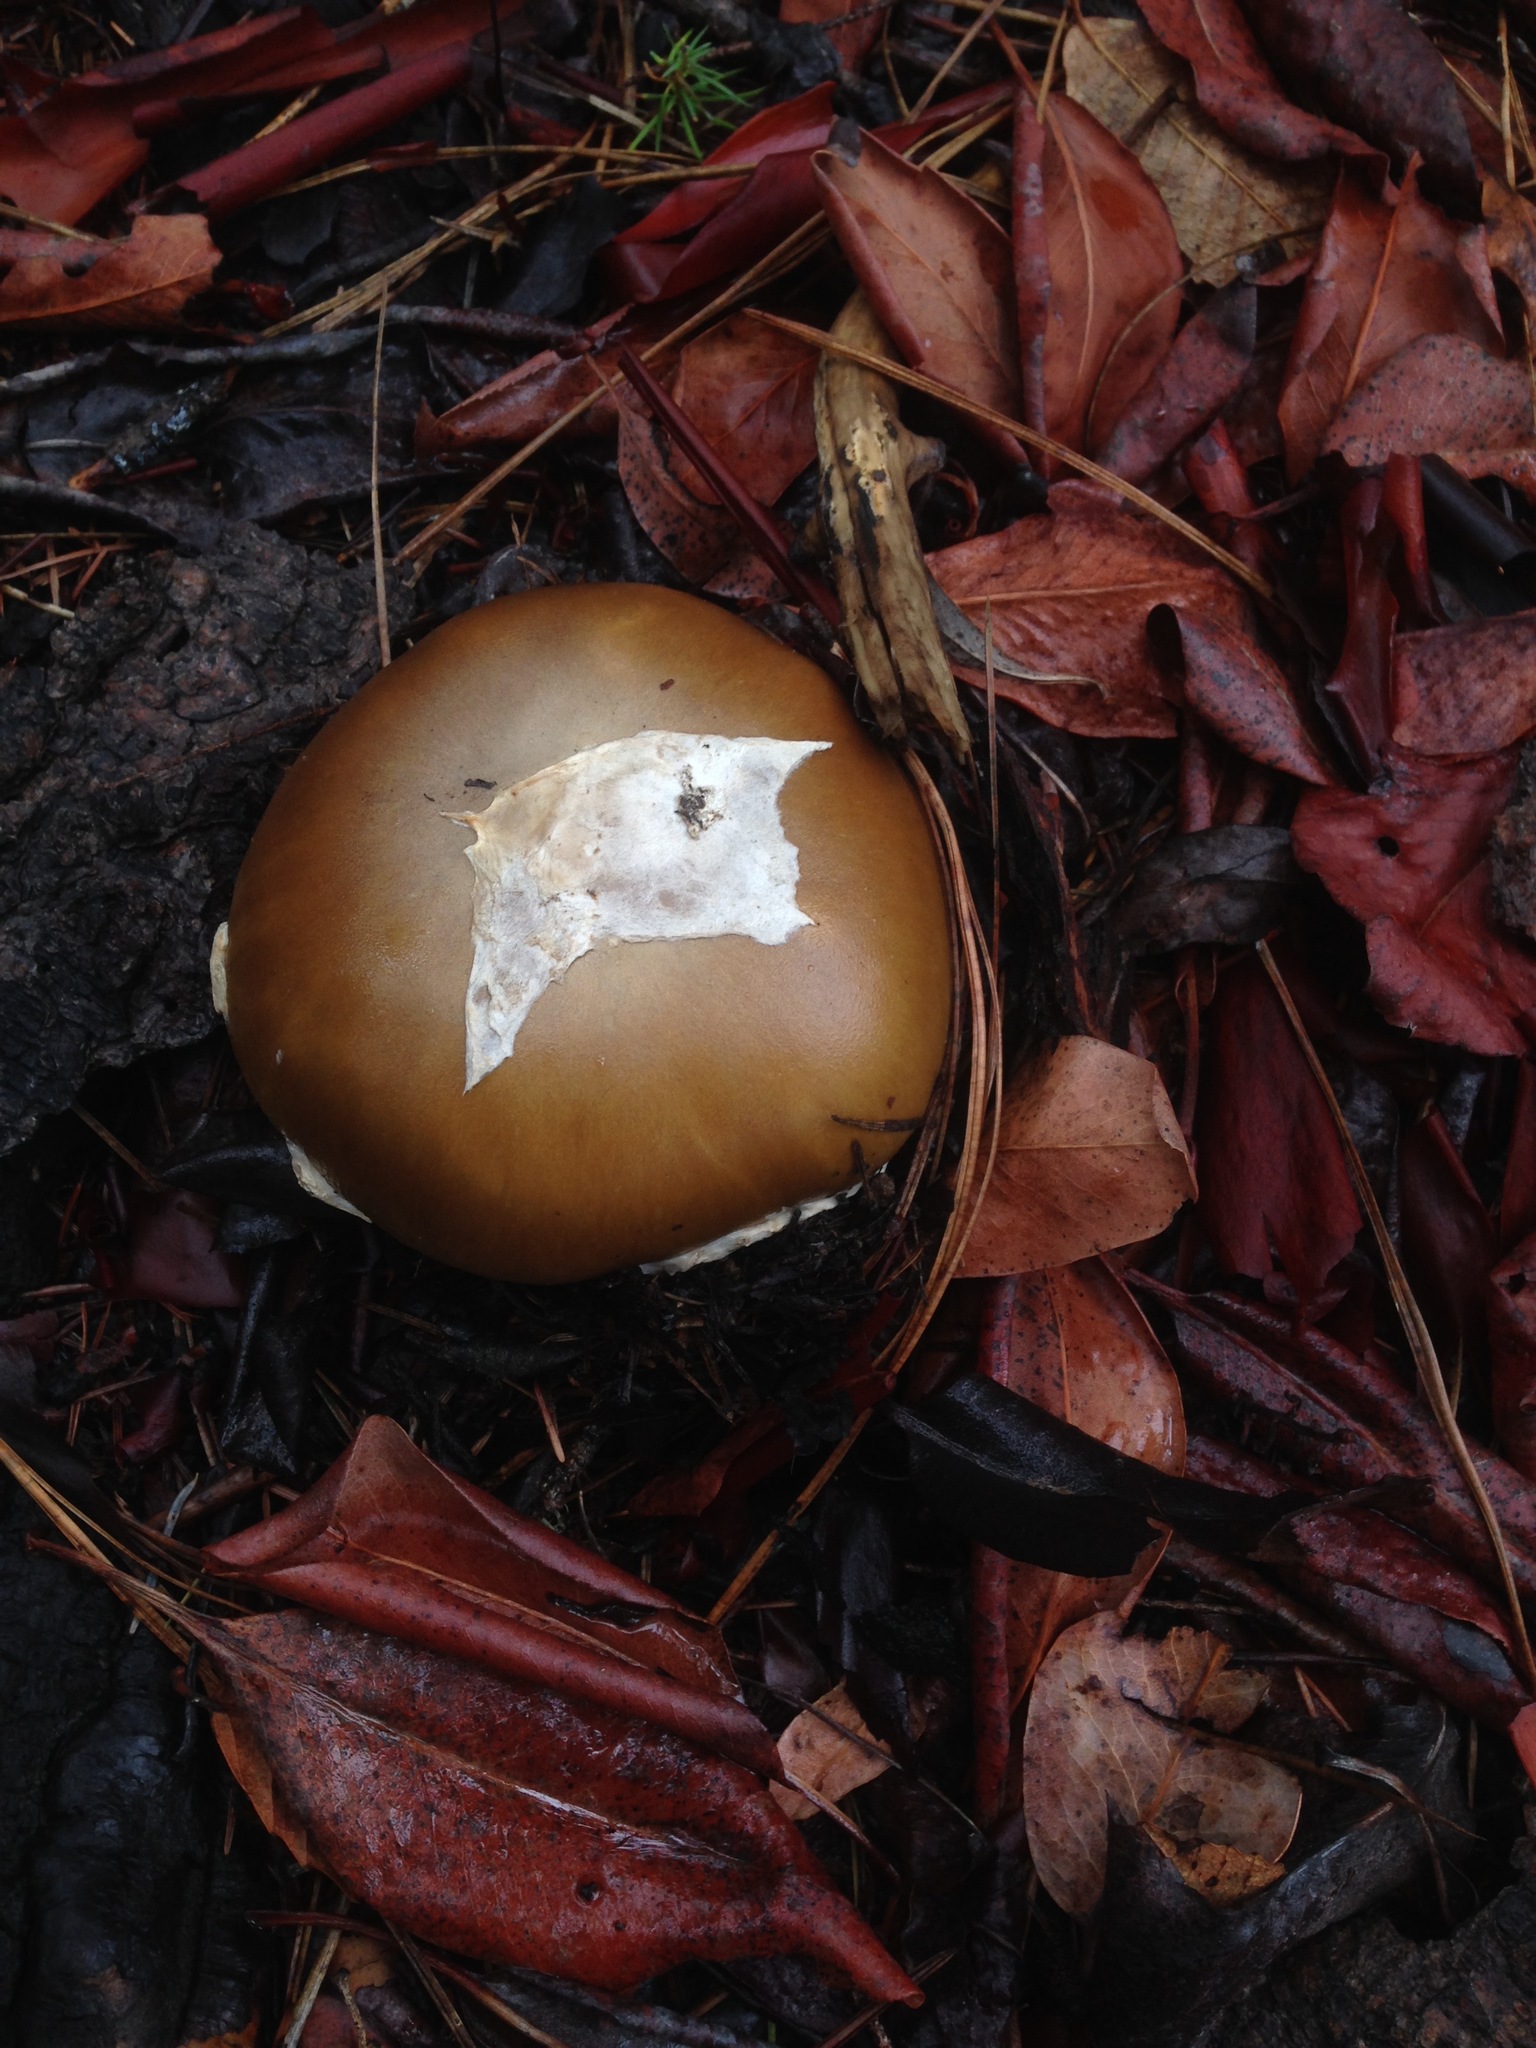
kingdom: Fungi
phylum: Basidiomycota
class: Agaricomycetes
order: Agaricales
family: Amanitaceae
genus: Amanita
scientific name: Amanita calyptroderma
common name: Coccora
